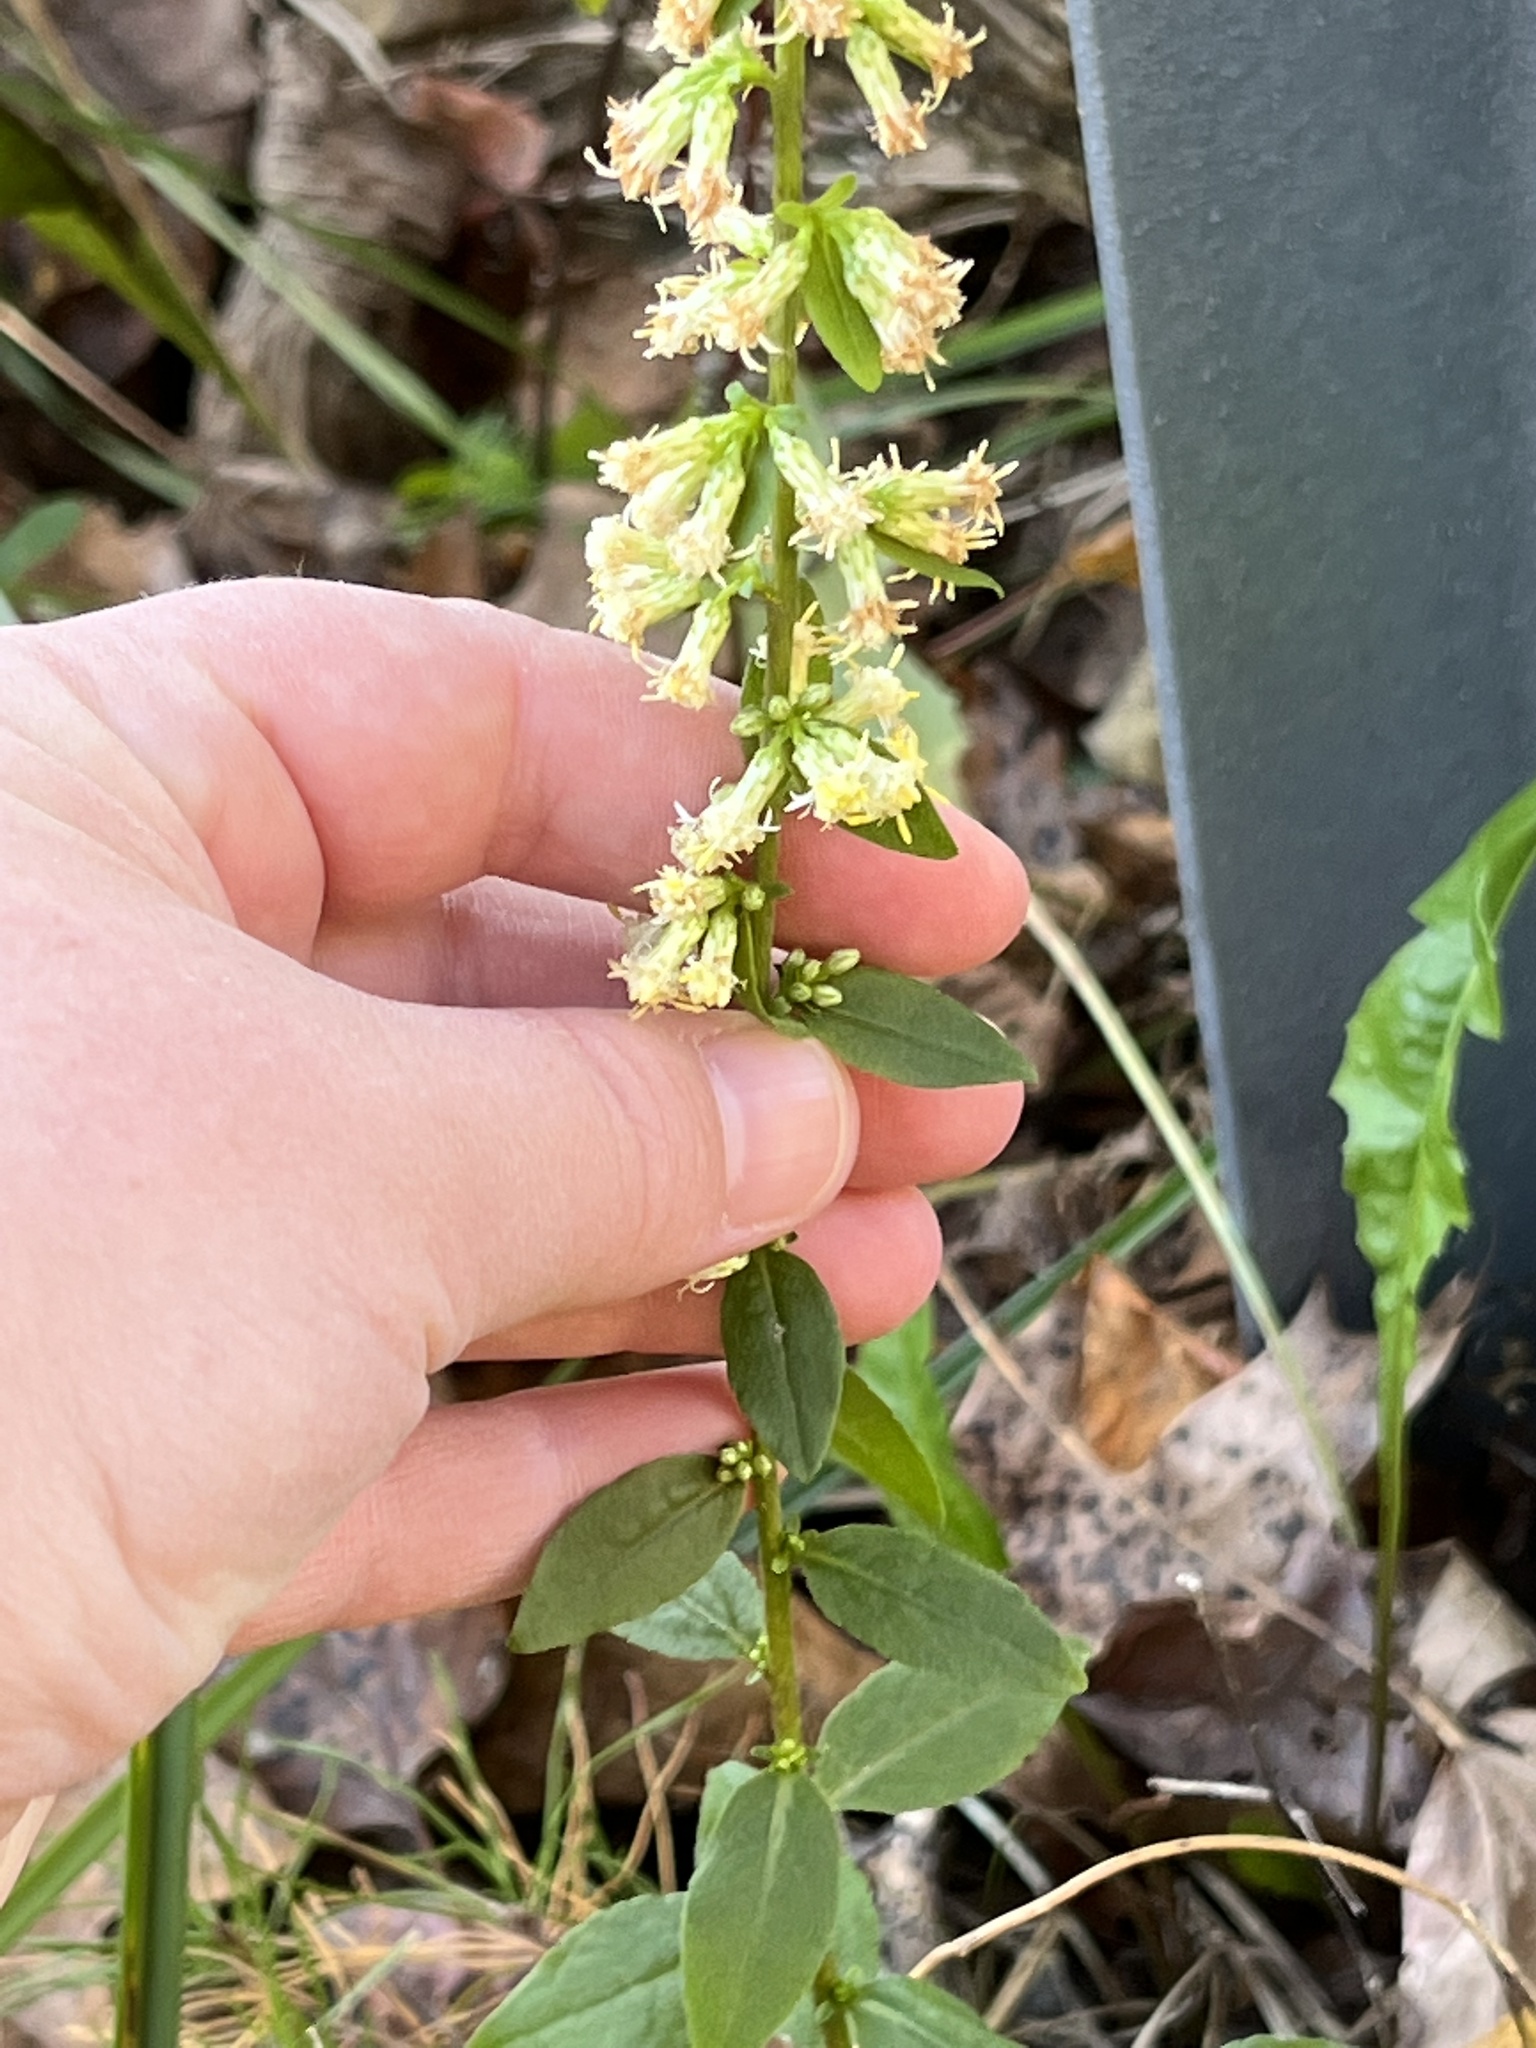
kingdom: Plantae
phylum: Tracheophyta
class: Magnoliopsida
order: Asterales
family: Asteraceae
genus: Solidago
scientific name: Solidago bicolor
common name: Silverrod
